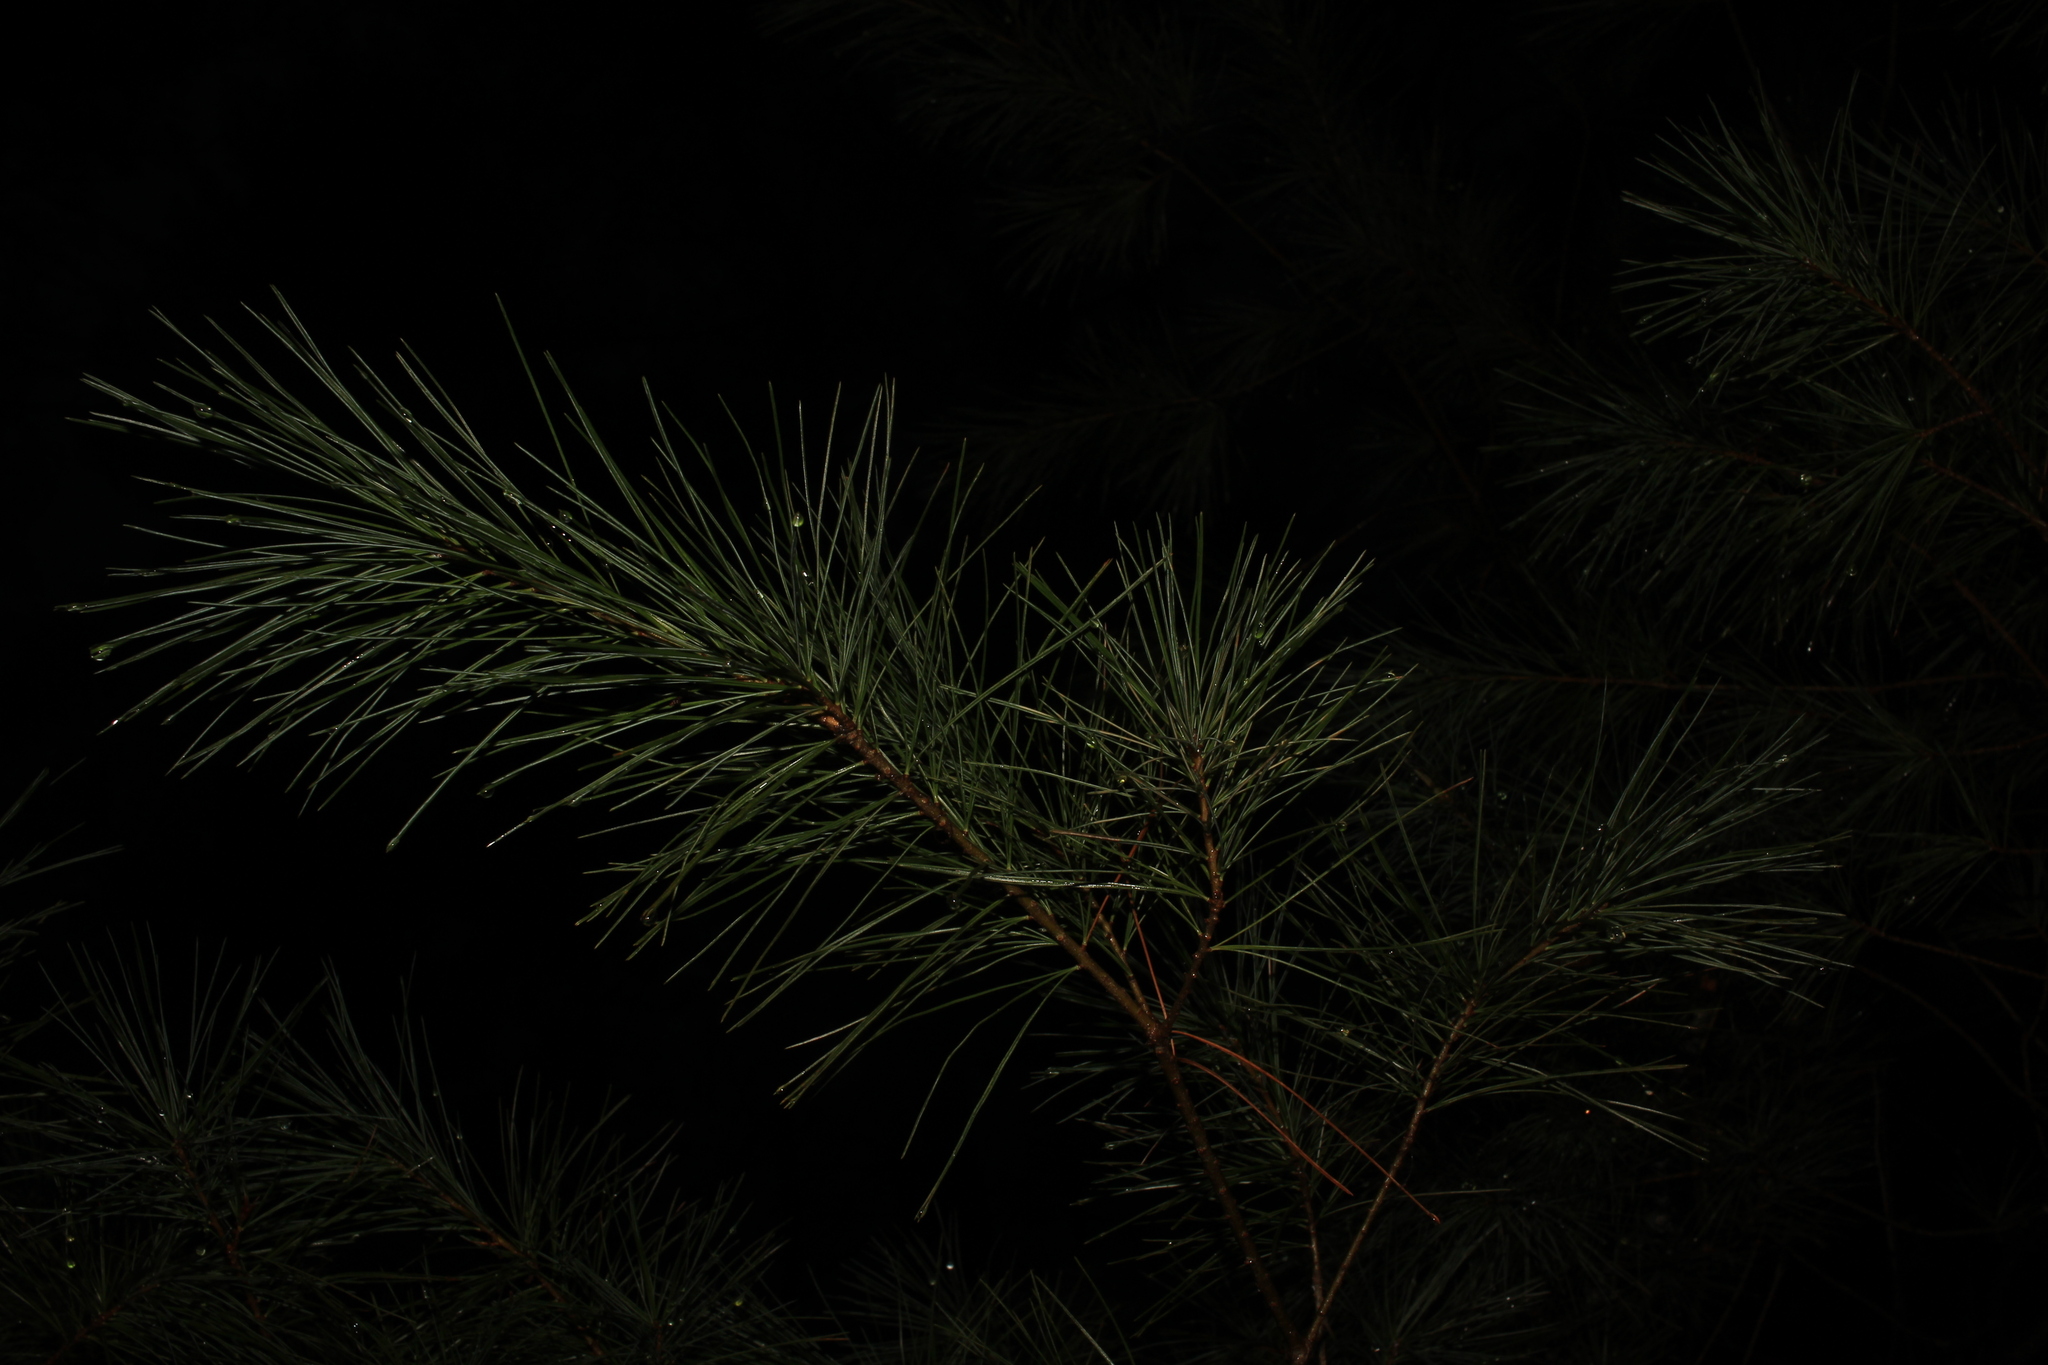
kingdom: Plantae
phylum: Tracheophyta
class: Pinopsida
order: Pinales
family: Pinaceae
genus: Pinus
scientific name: Pinus strobus
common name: Weymouth pine
